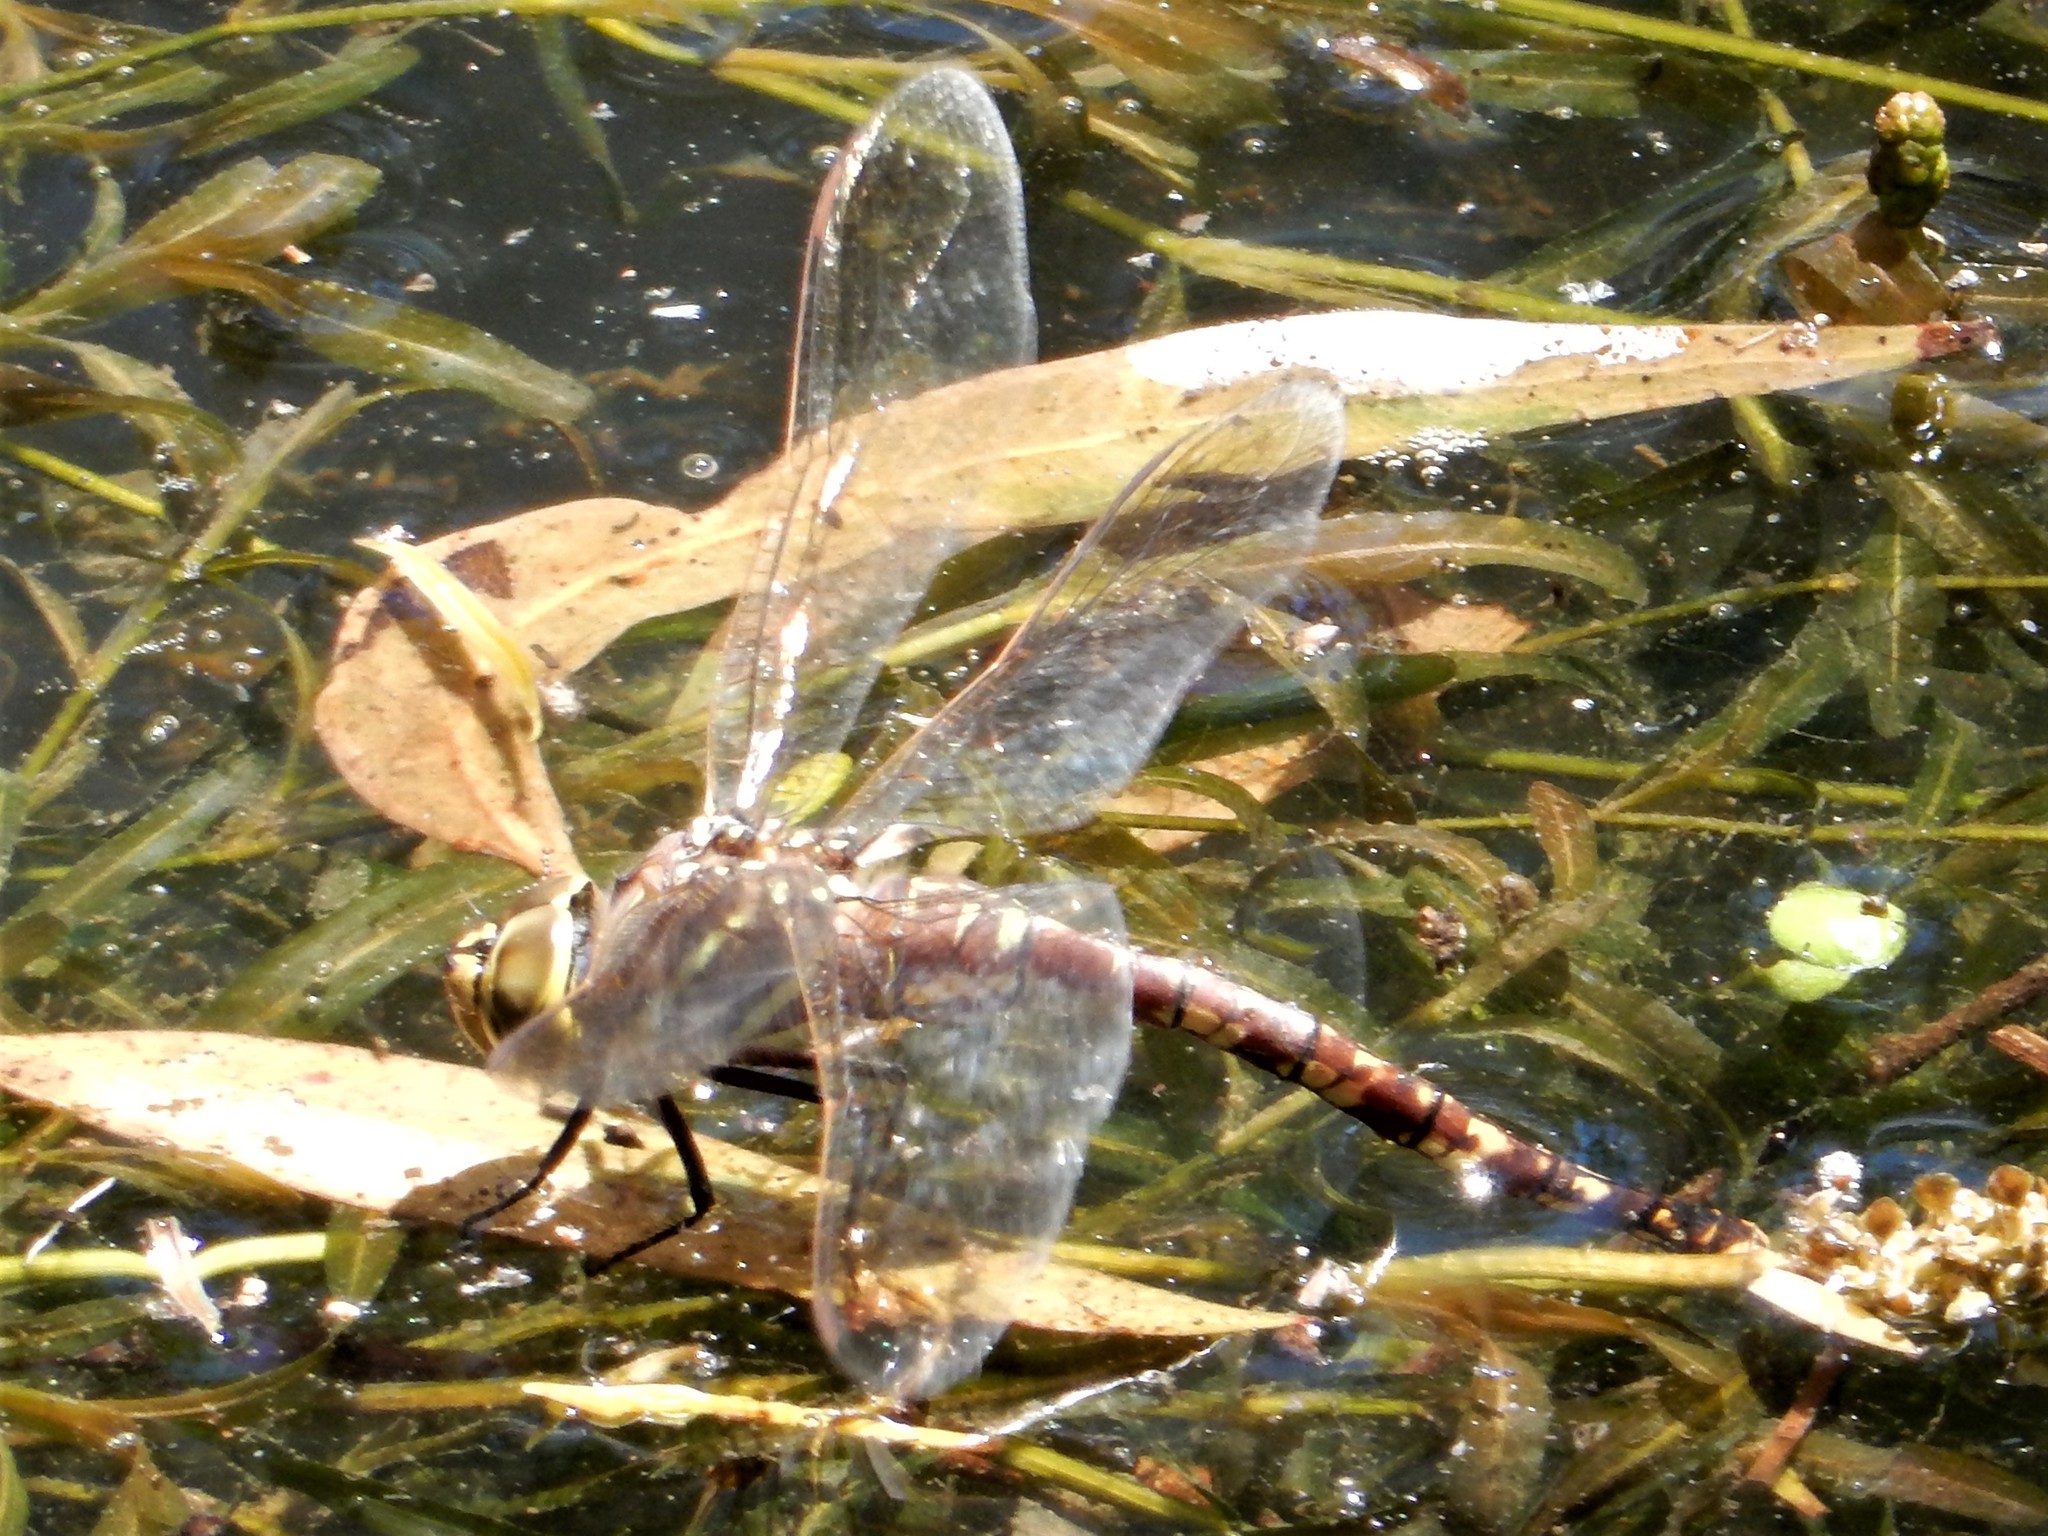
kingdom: Animalia
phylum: Arthropoda
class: Insecta
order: Odonata
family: Aeshnidae
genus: Aeshna
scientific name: Aeshna brevistyla
